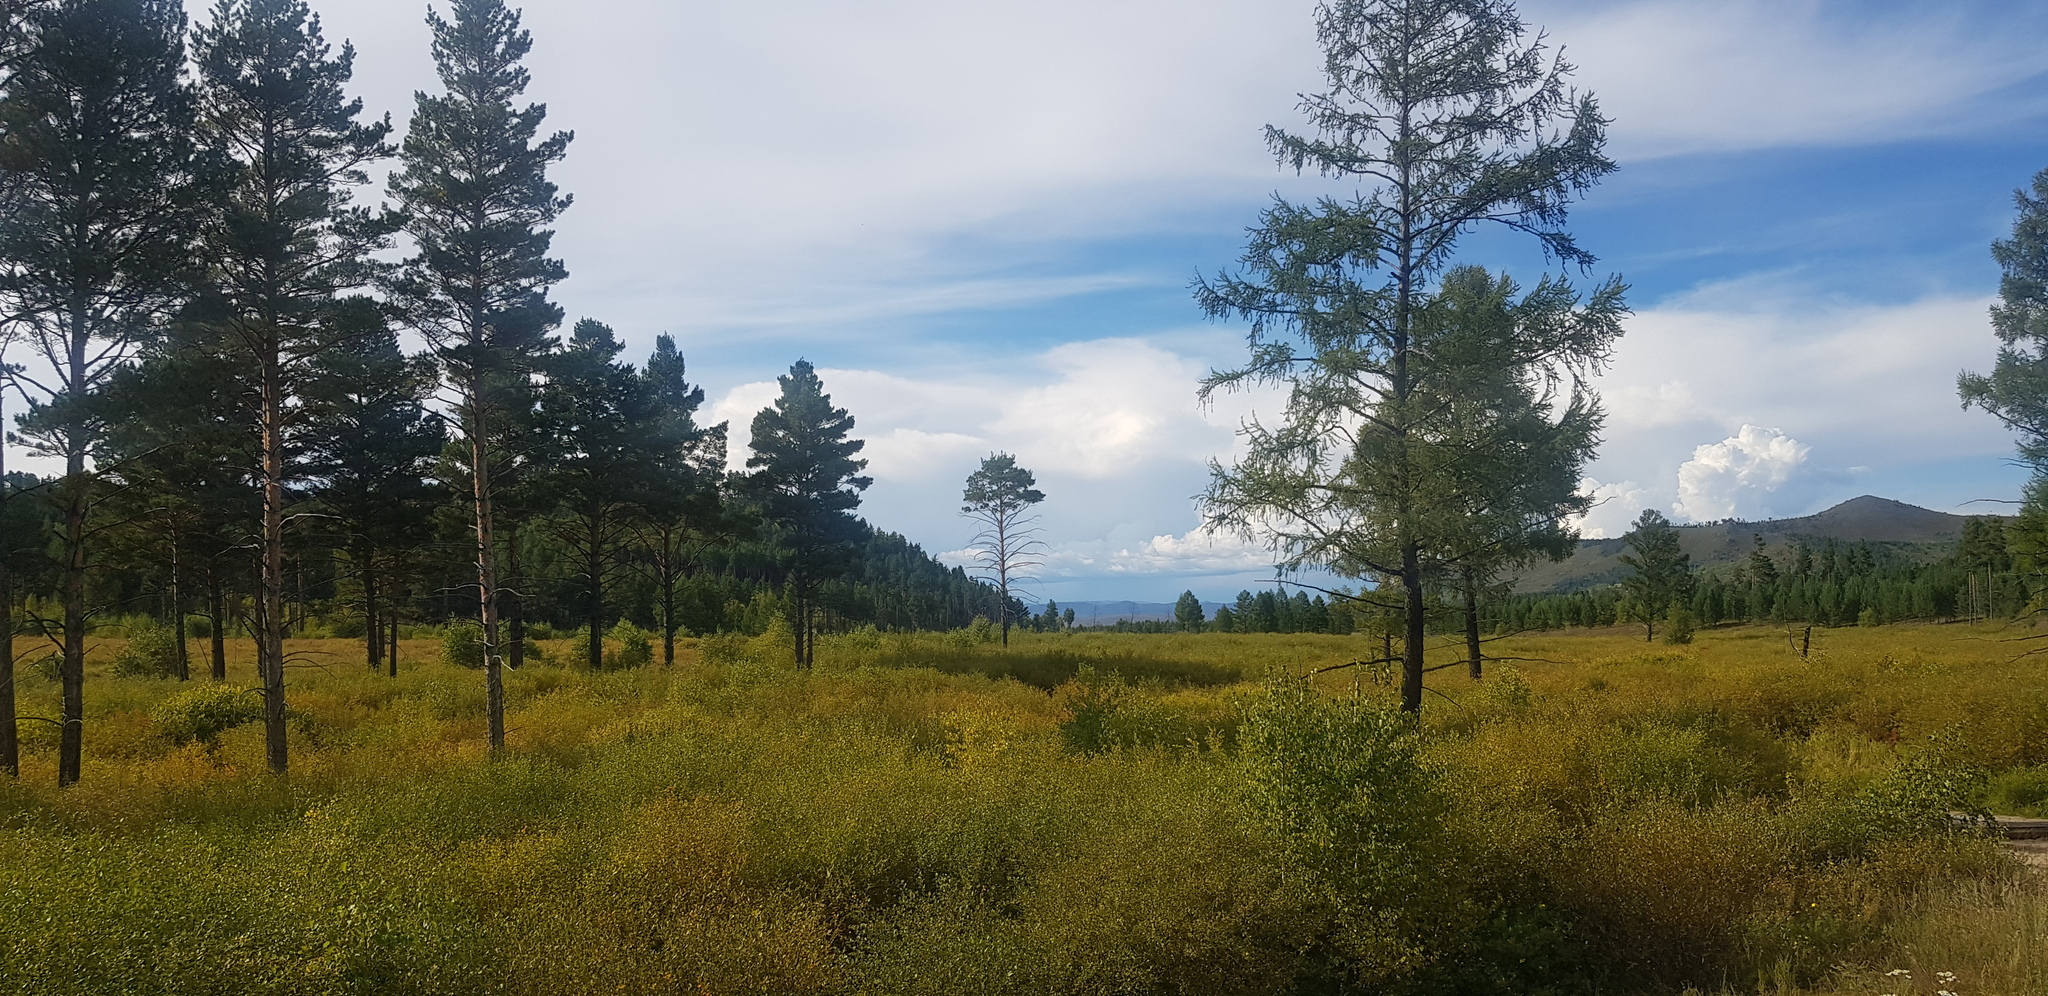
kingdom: Plantae
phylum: Tracheophyta
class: Pinopsida
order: Pinales
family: Pinaceae
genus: Pinus
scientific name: Pinus sylvestris
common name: Scots pine
